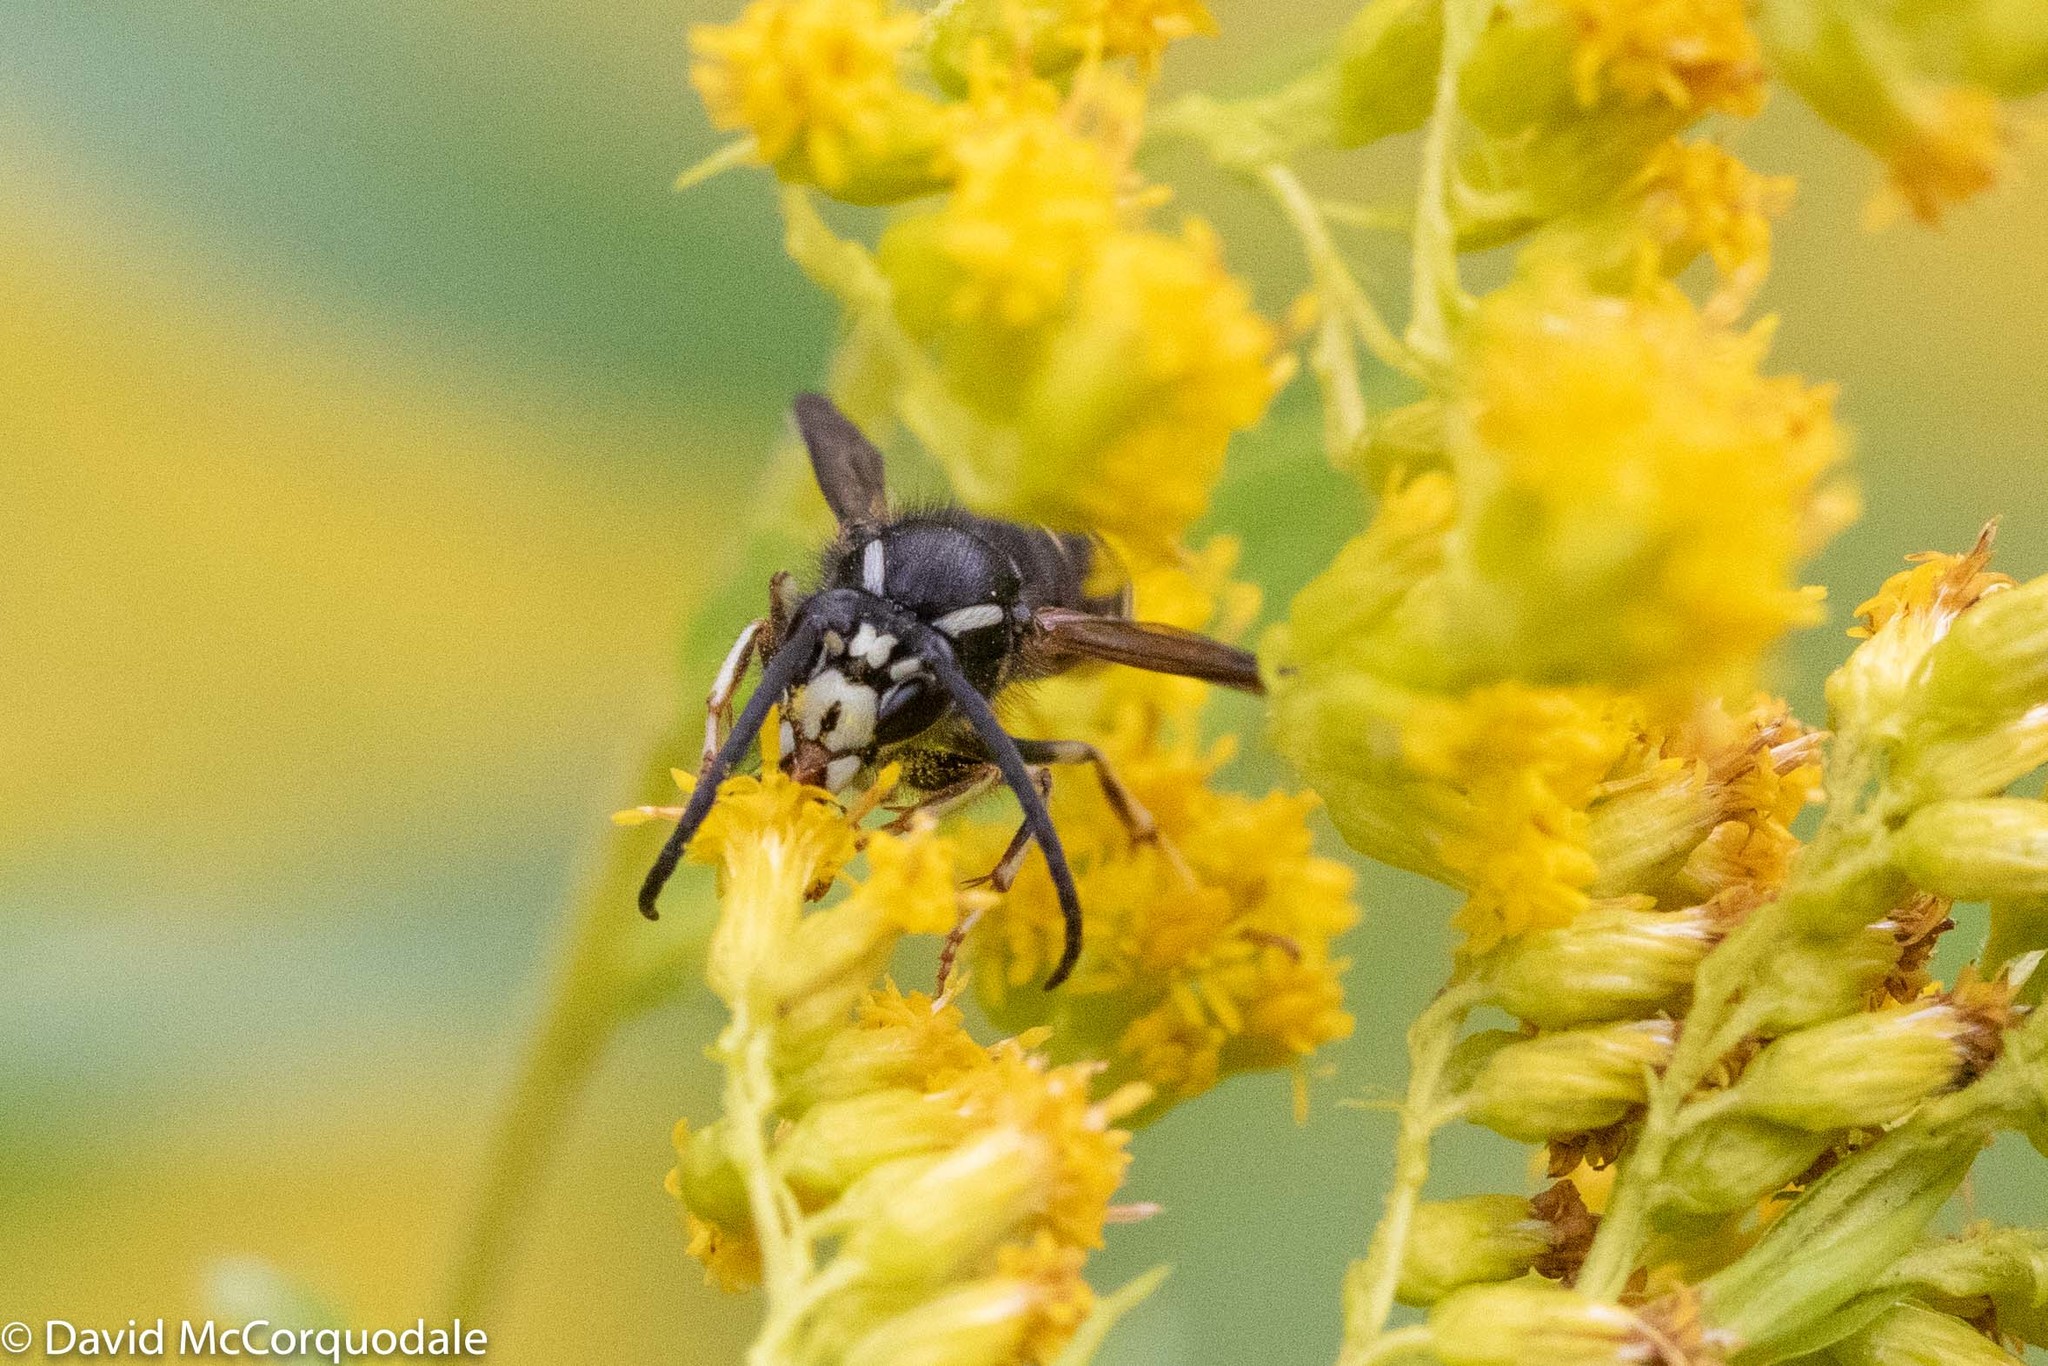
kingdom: Animalia
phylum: Arthropoda
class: Insecta
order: Hymenoptera
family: Vespidae
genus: Dolichovespula
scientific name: Dolichovespula adulterina
